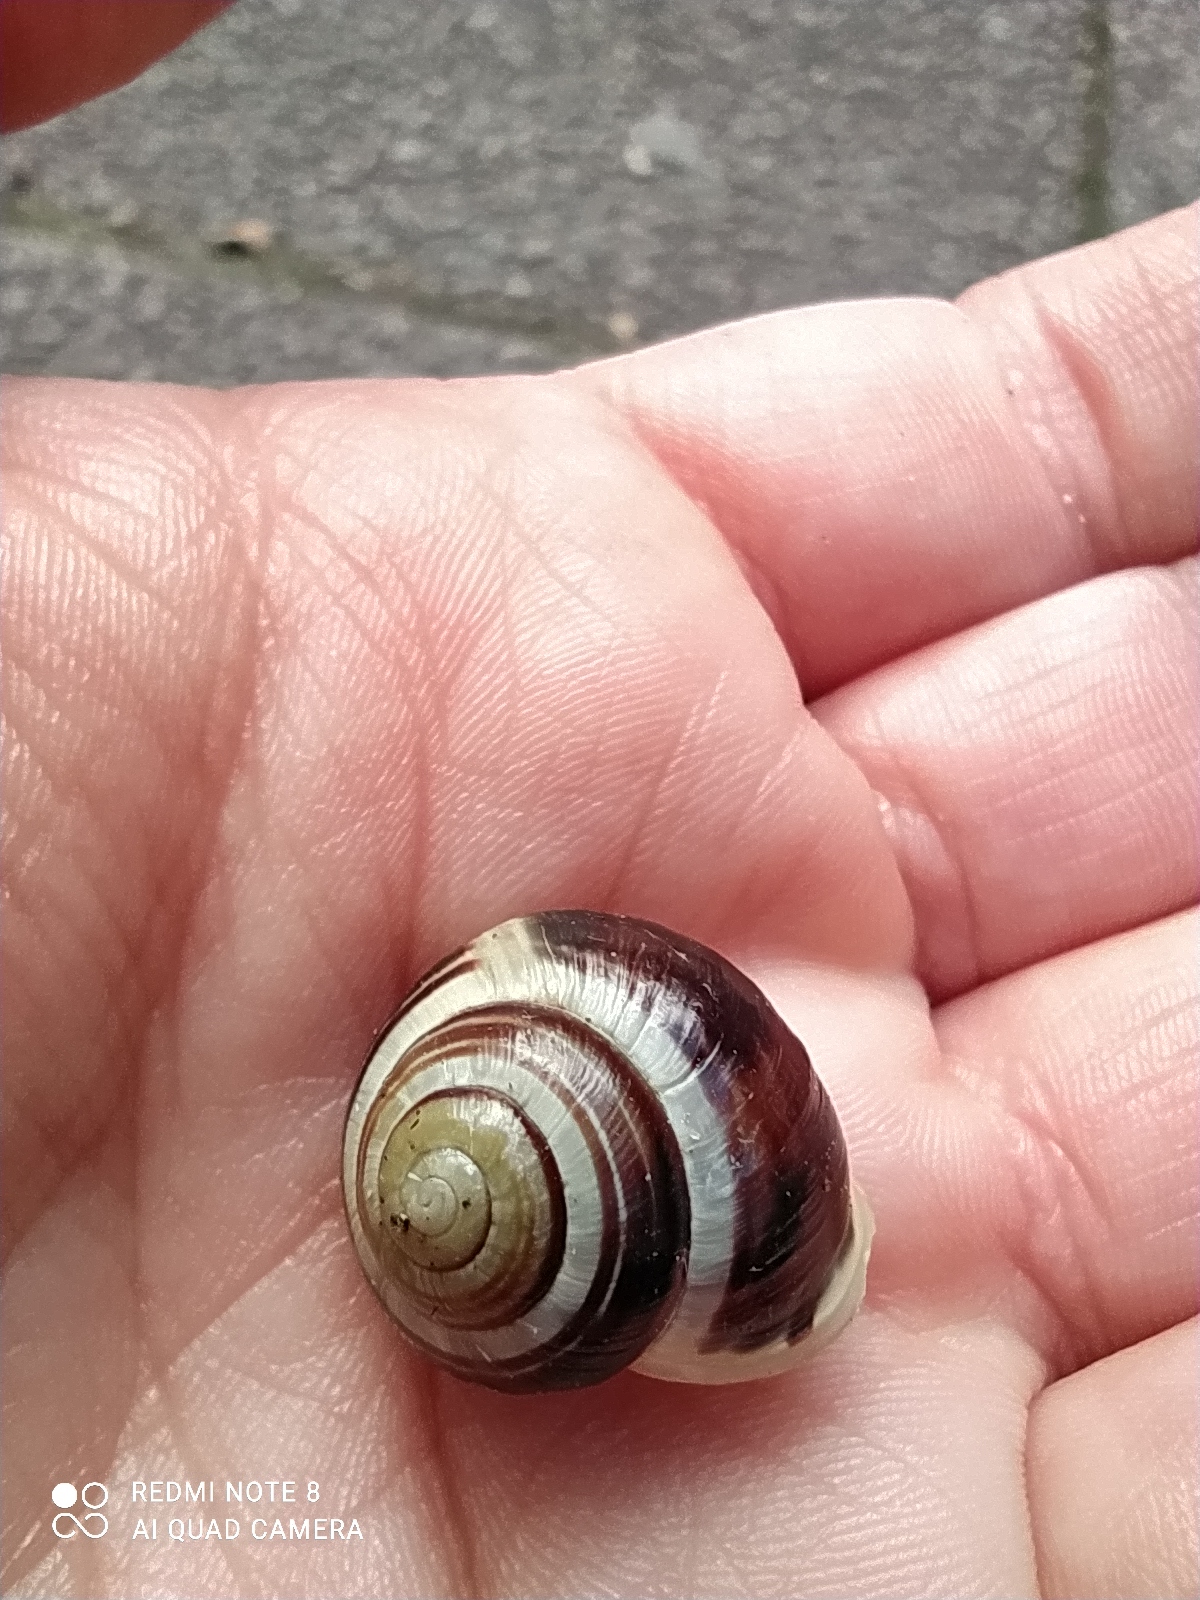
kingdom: Animalia
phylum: Mollusca
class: Gastropoda
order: Stylommatophora
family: Helicidae
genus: Cepaea
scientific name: Cepaea hortensis
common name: White-lip gardensnail
